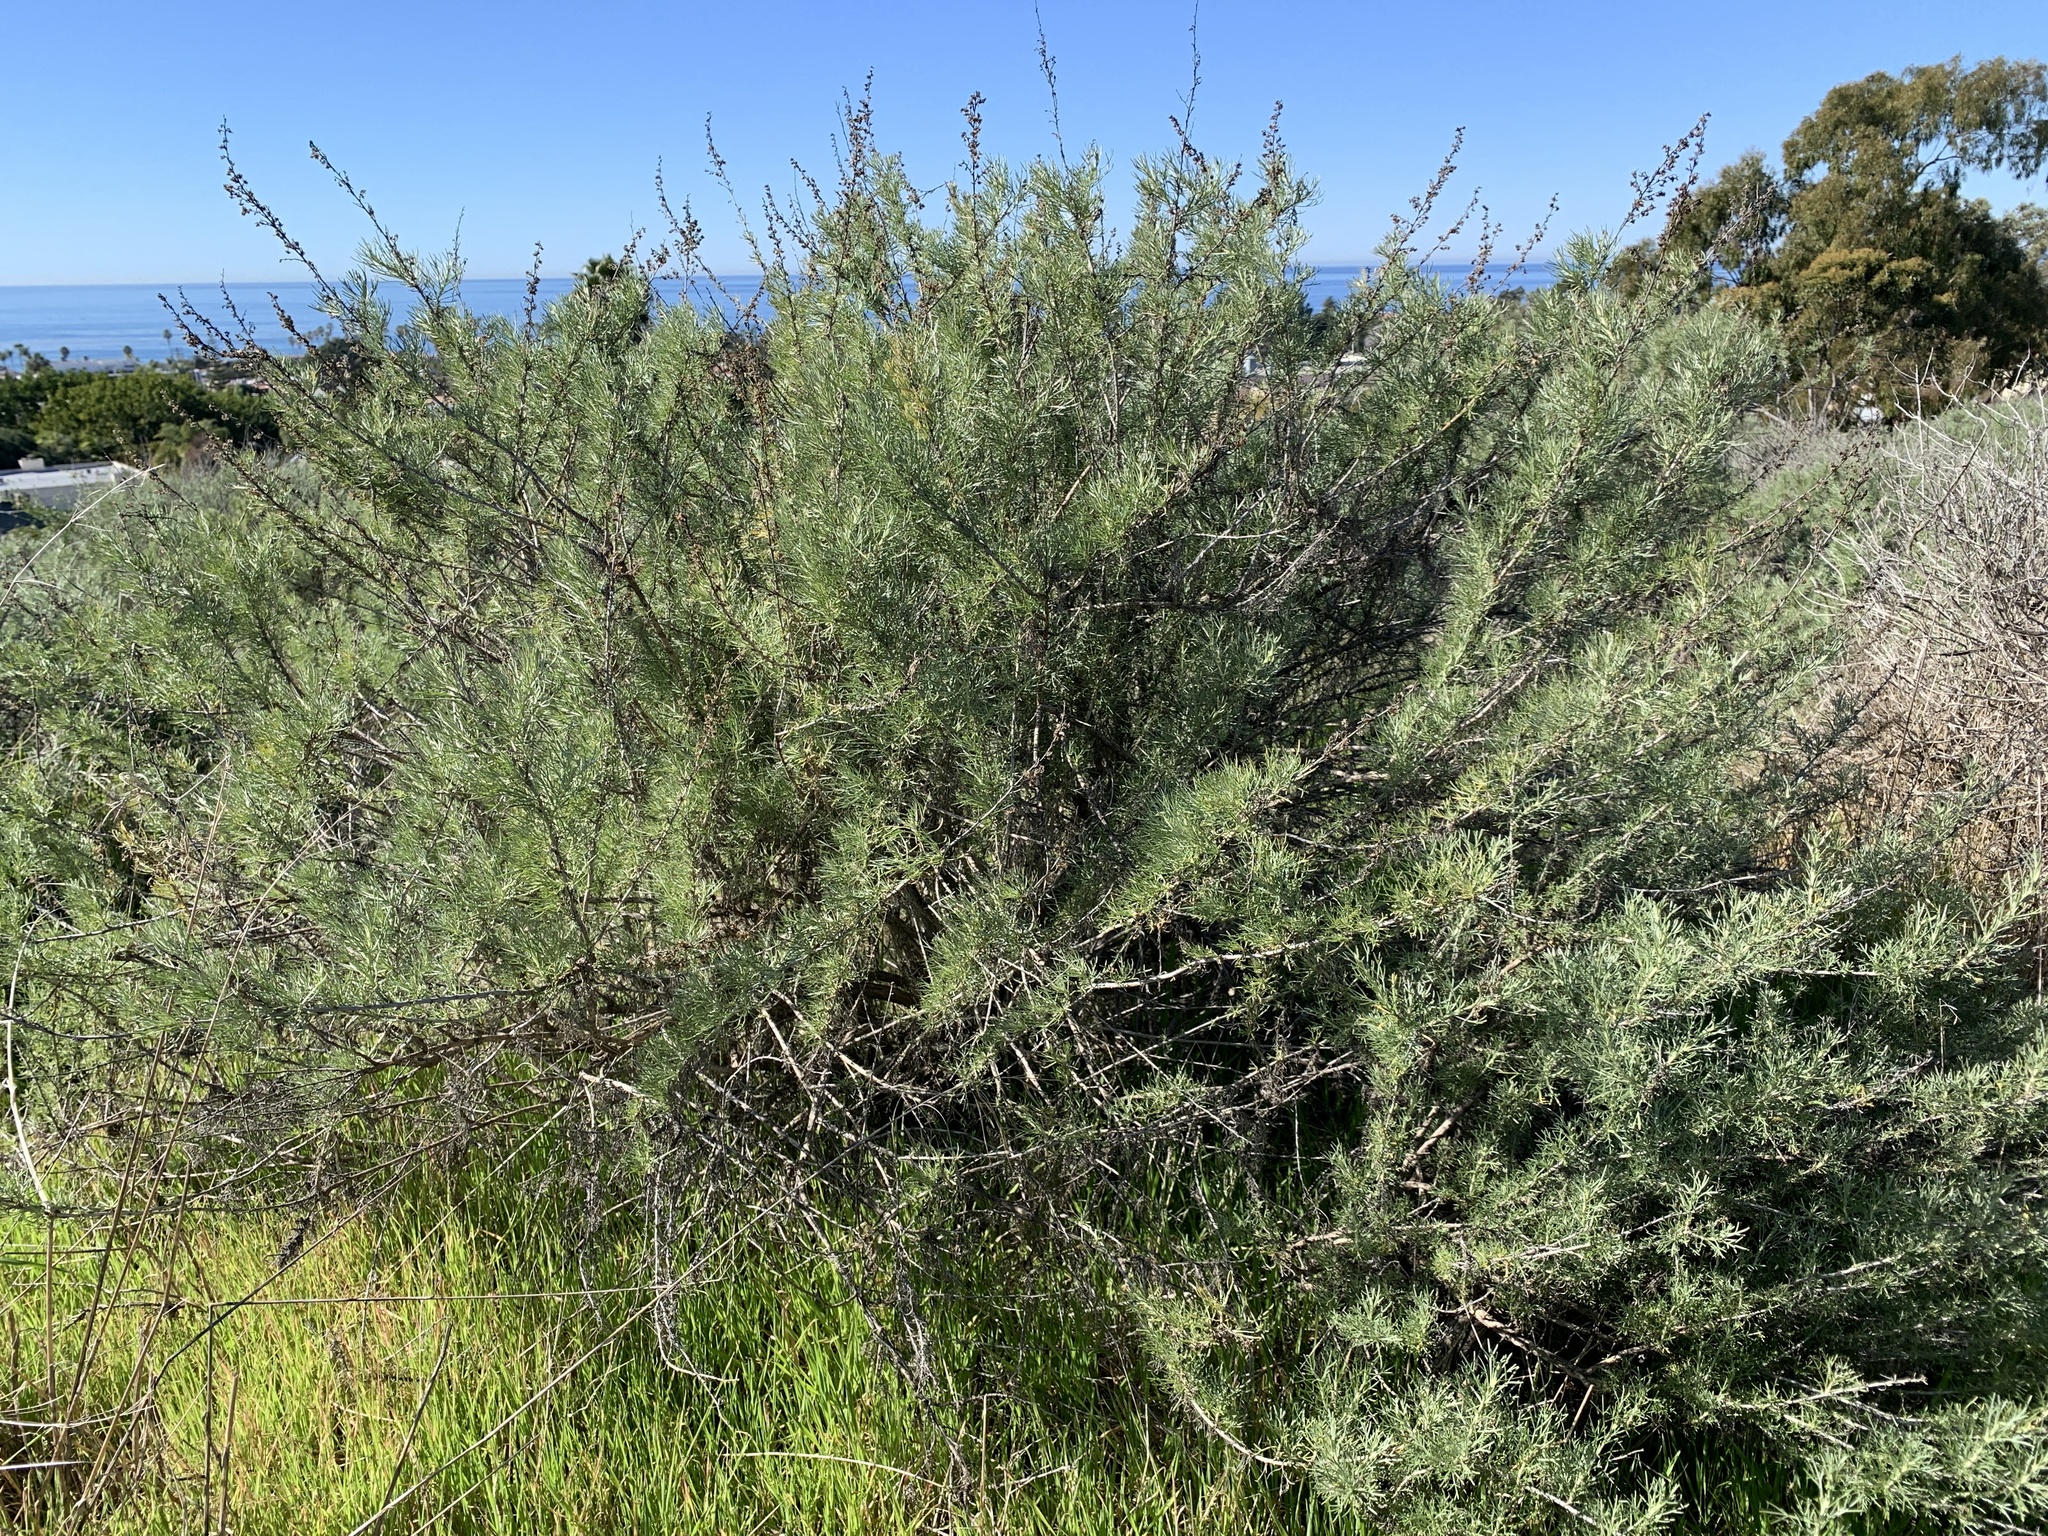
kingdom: Plantae
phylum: Tracheophyta
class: Magnoliopsida
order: Asterales
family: Asteraceae
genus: Artemisia
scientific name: Artemisia californica
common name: California sagebrush
